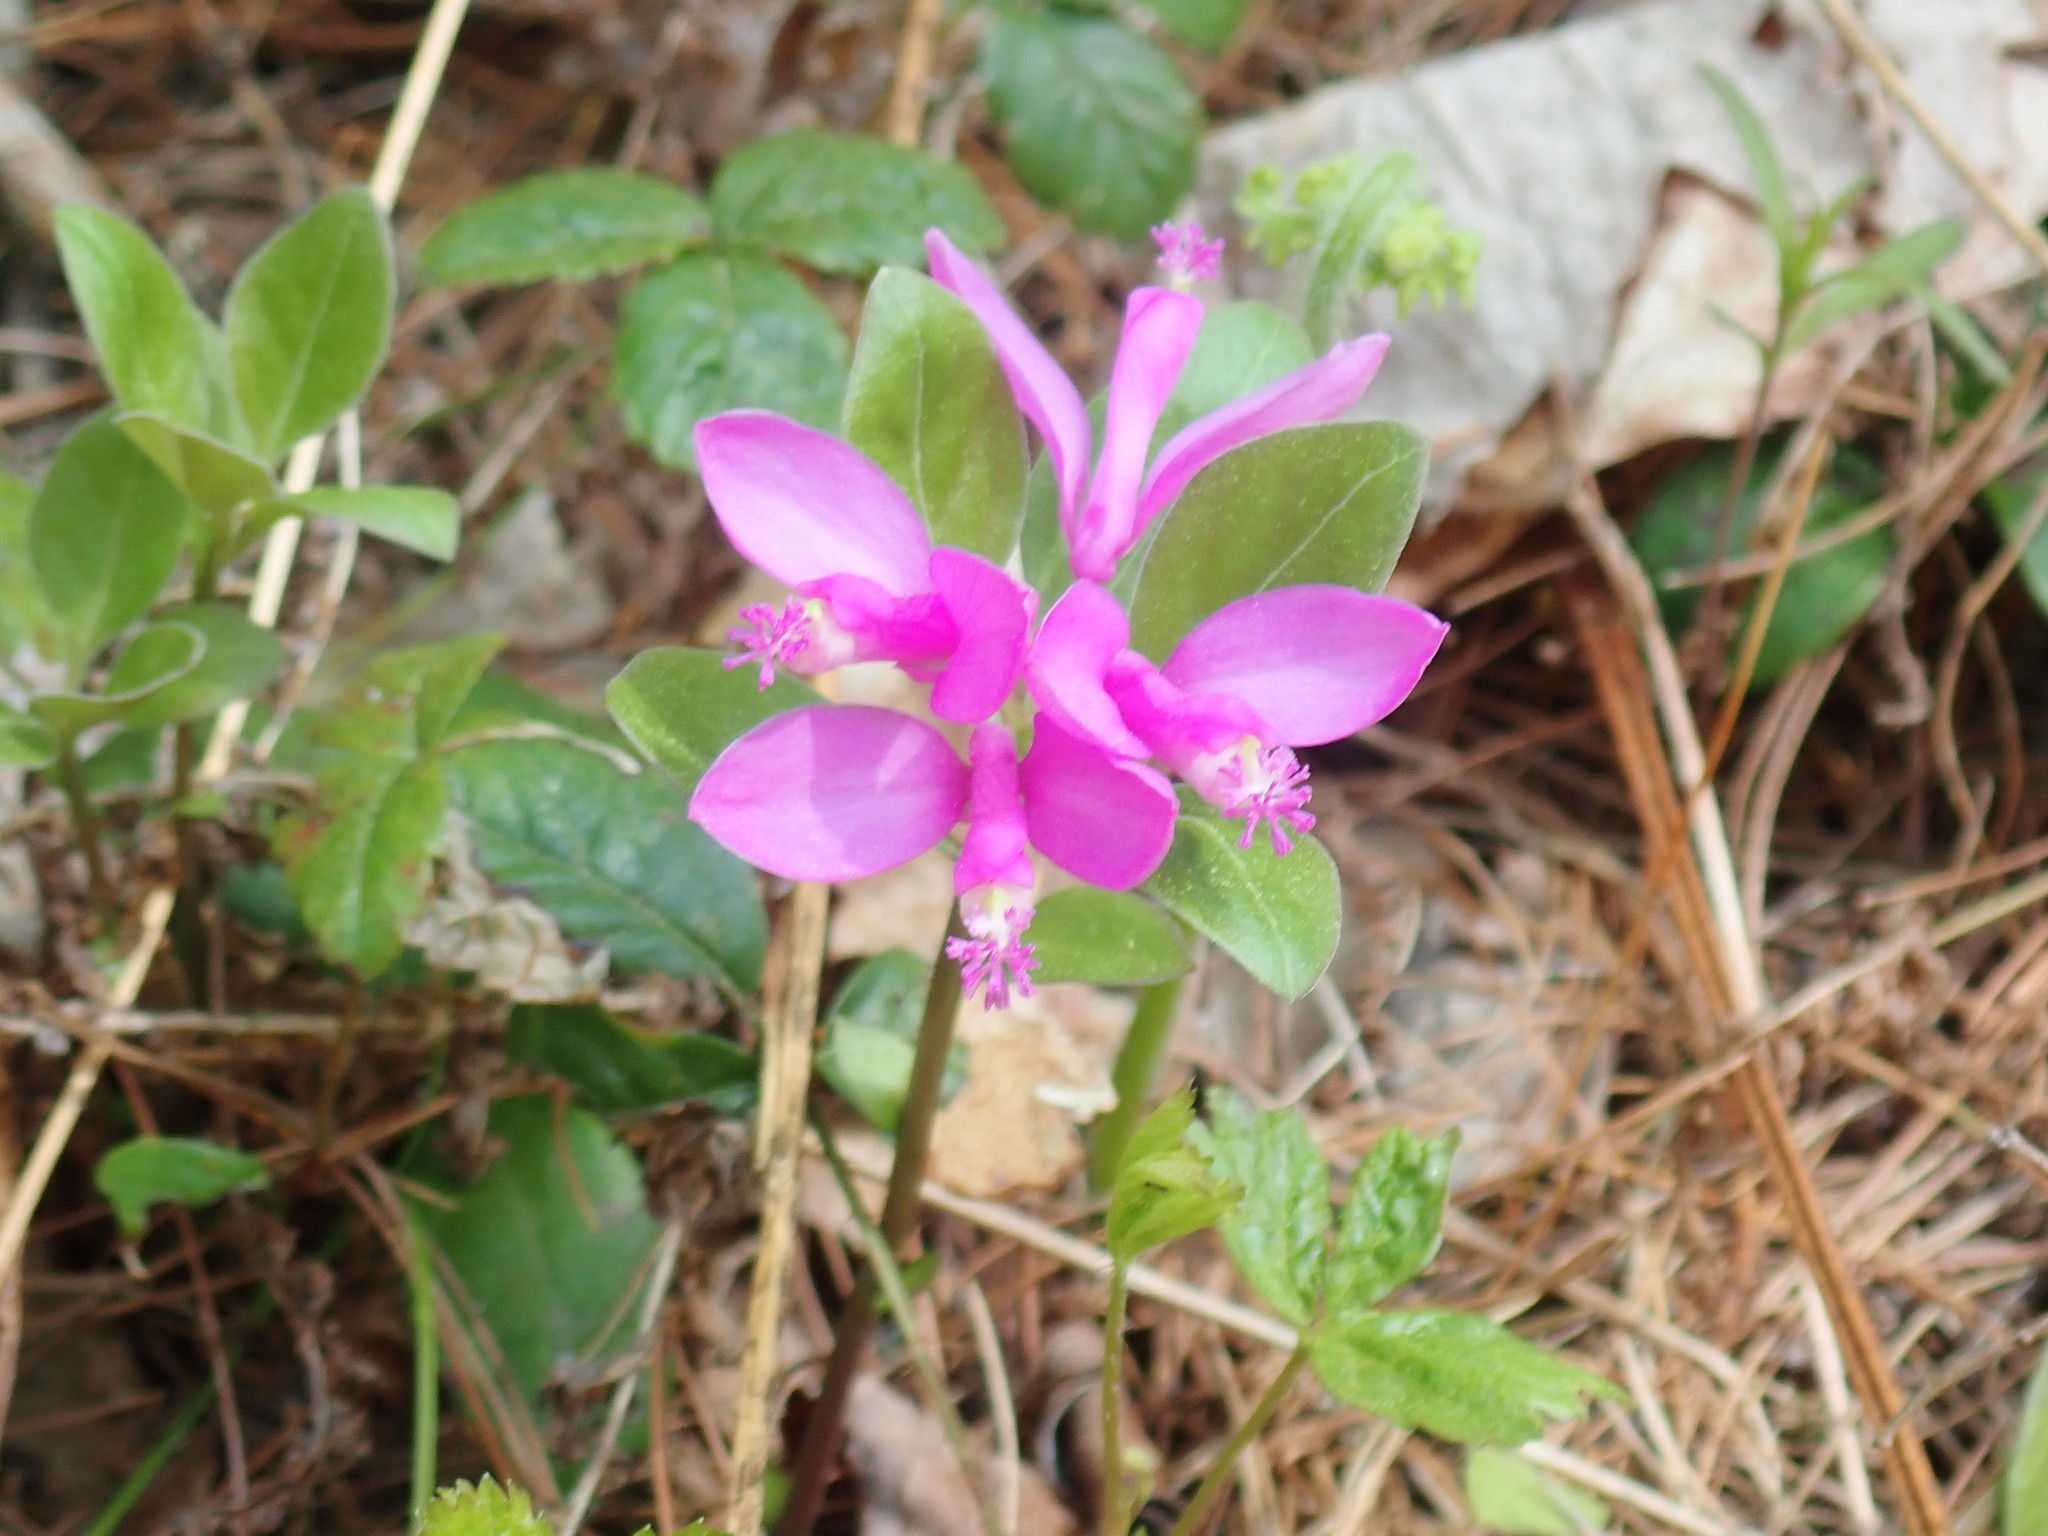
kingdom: Plantae
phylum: Tracheophyta
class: Magnoliopsida
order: Fabales
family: Polygalaceae
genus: Polygaloides
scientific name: Polygaloides paucifolia
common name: Bird-on-the-wing
